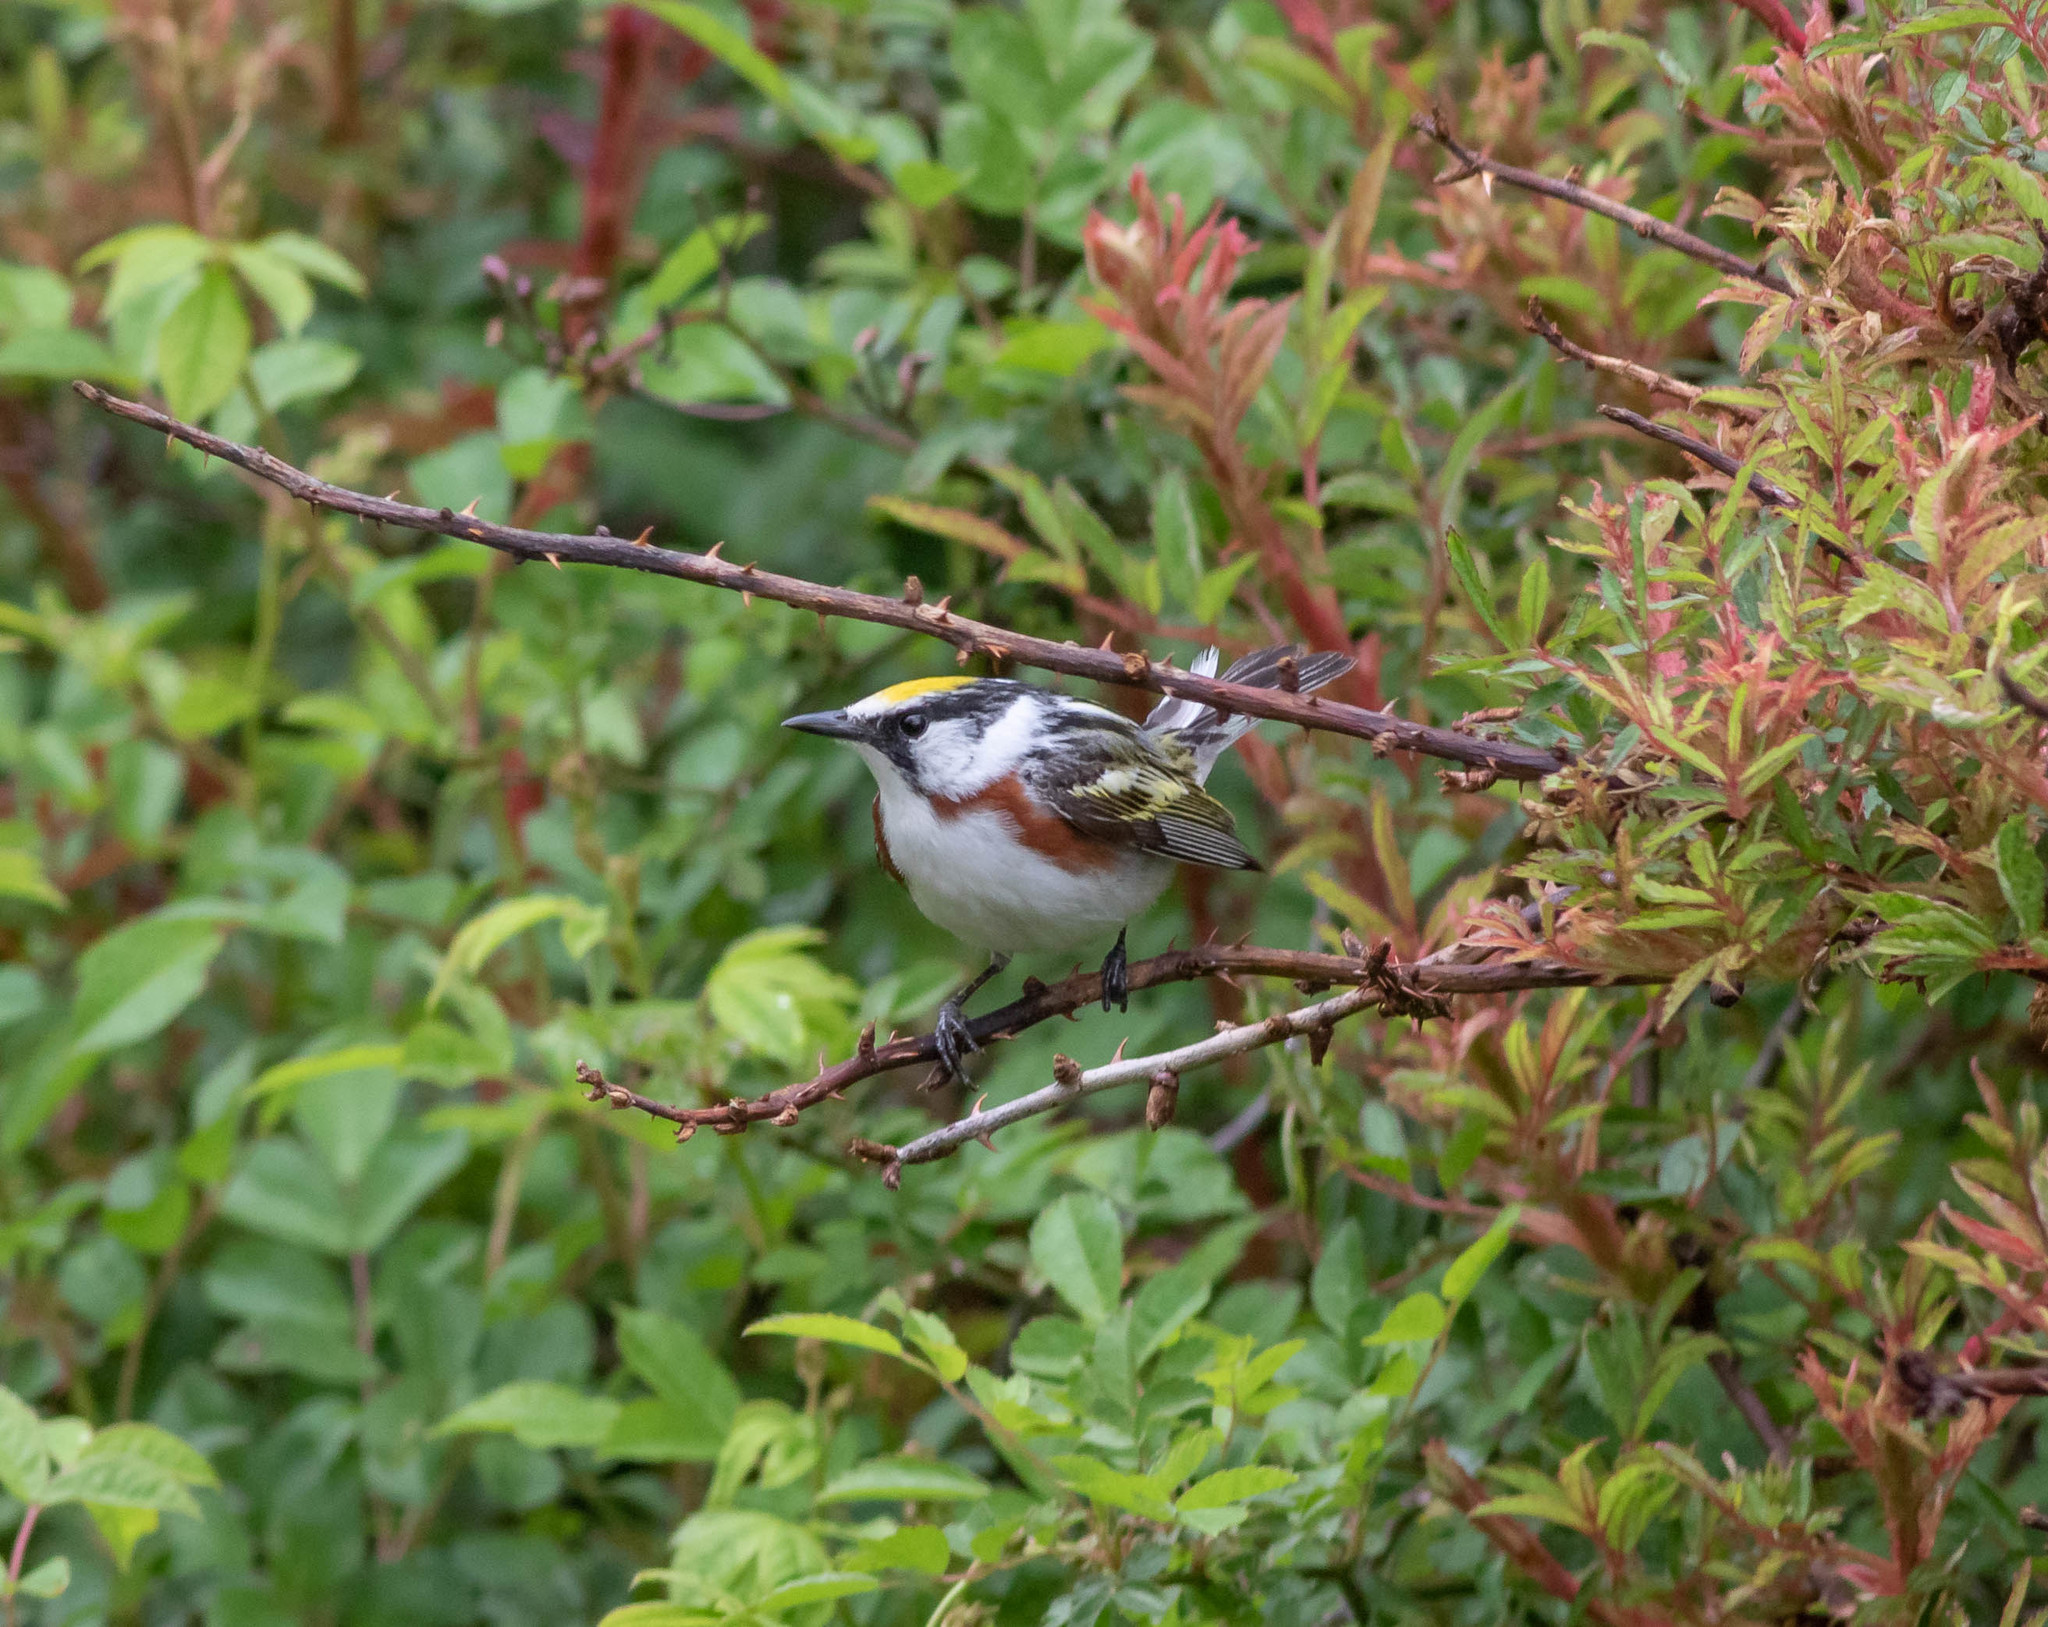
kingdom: Animalia
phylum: Chordata
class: Aves
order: Passeriformes
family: Parulidae
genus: Setophaga
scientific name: Setophaga pensylvanica
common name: Chestnut-sided warbler
